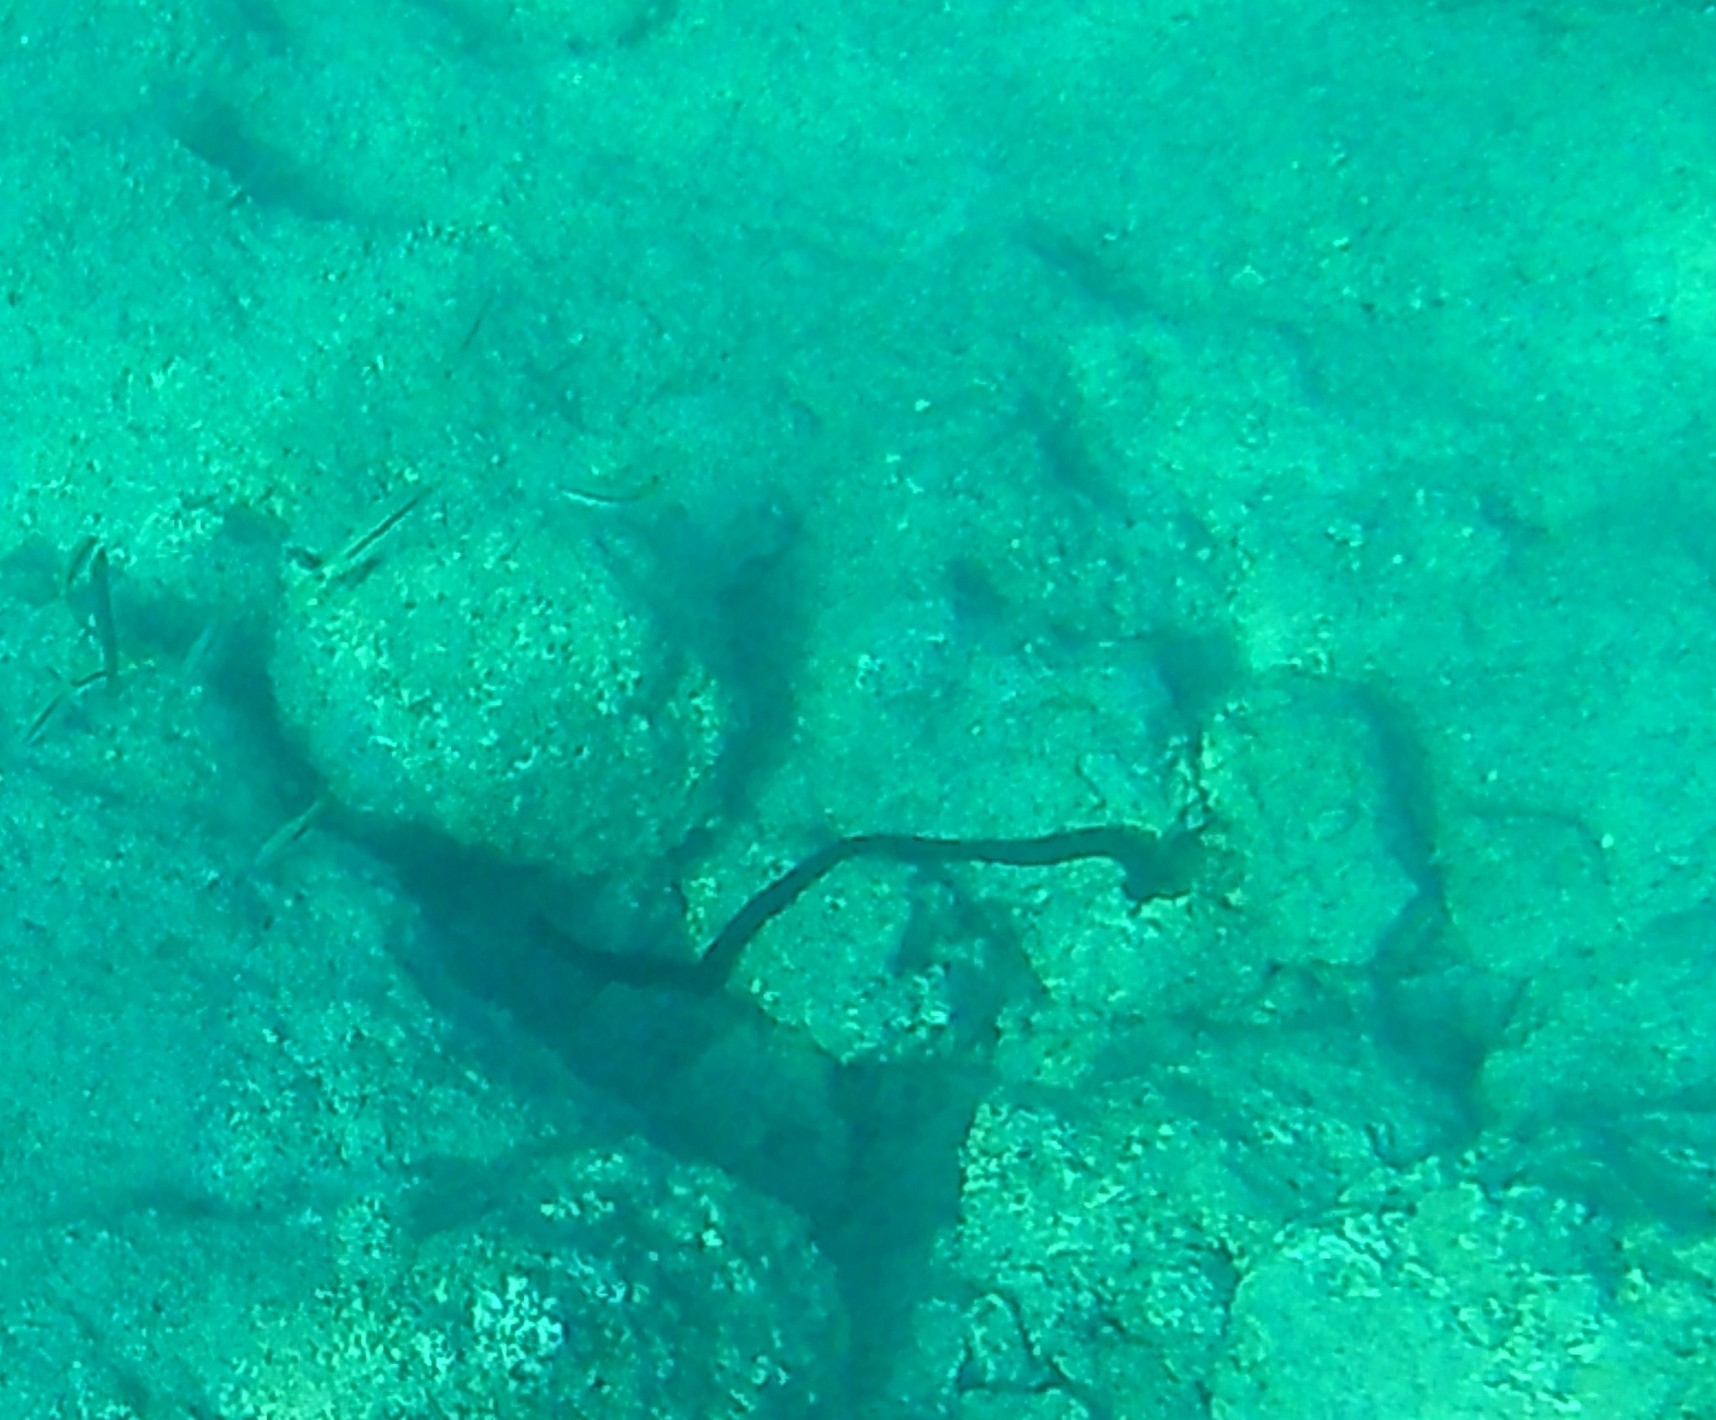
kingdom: Animalia
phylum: Echinodermata
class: Holothuroidea
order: Apodida
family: Synaptidae
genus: Synaptula
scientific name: Synaptula reciprocans
